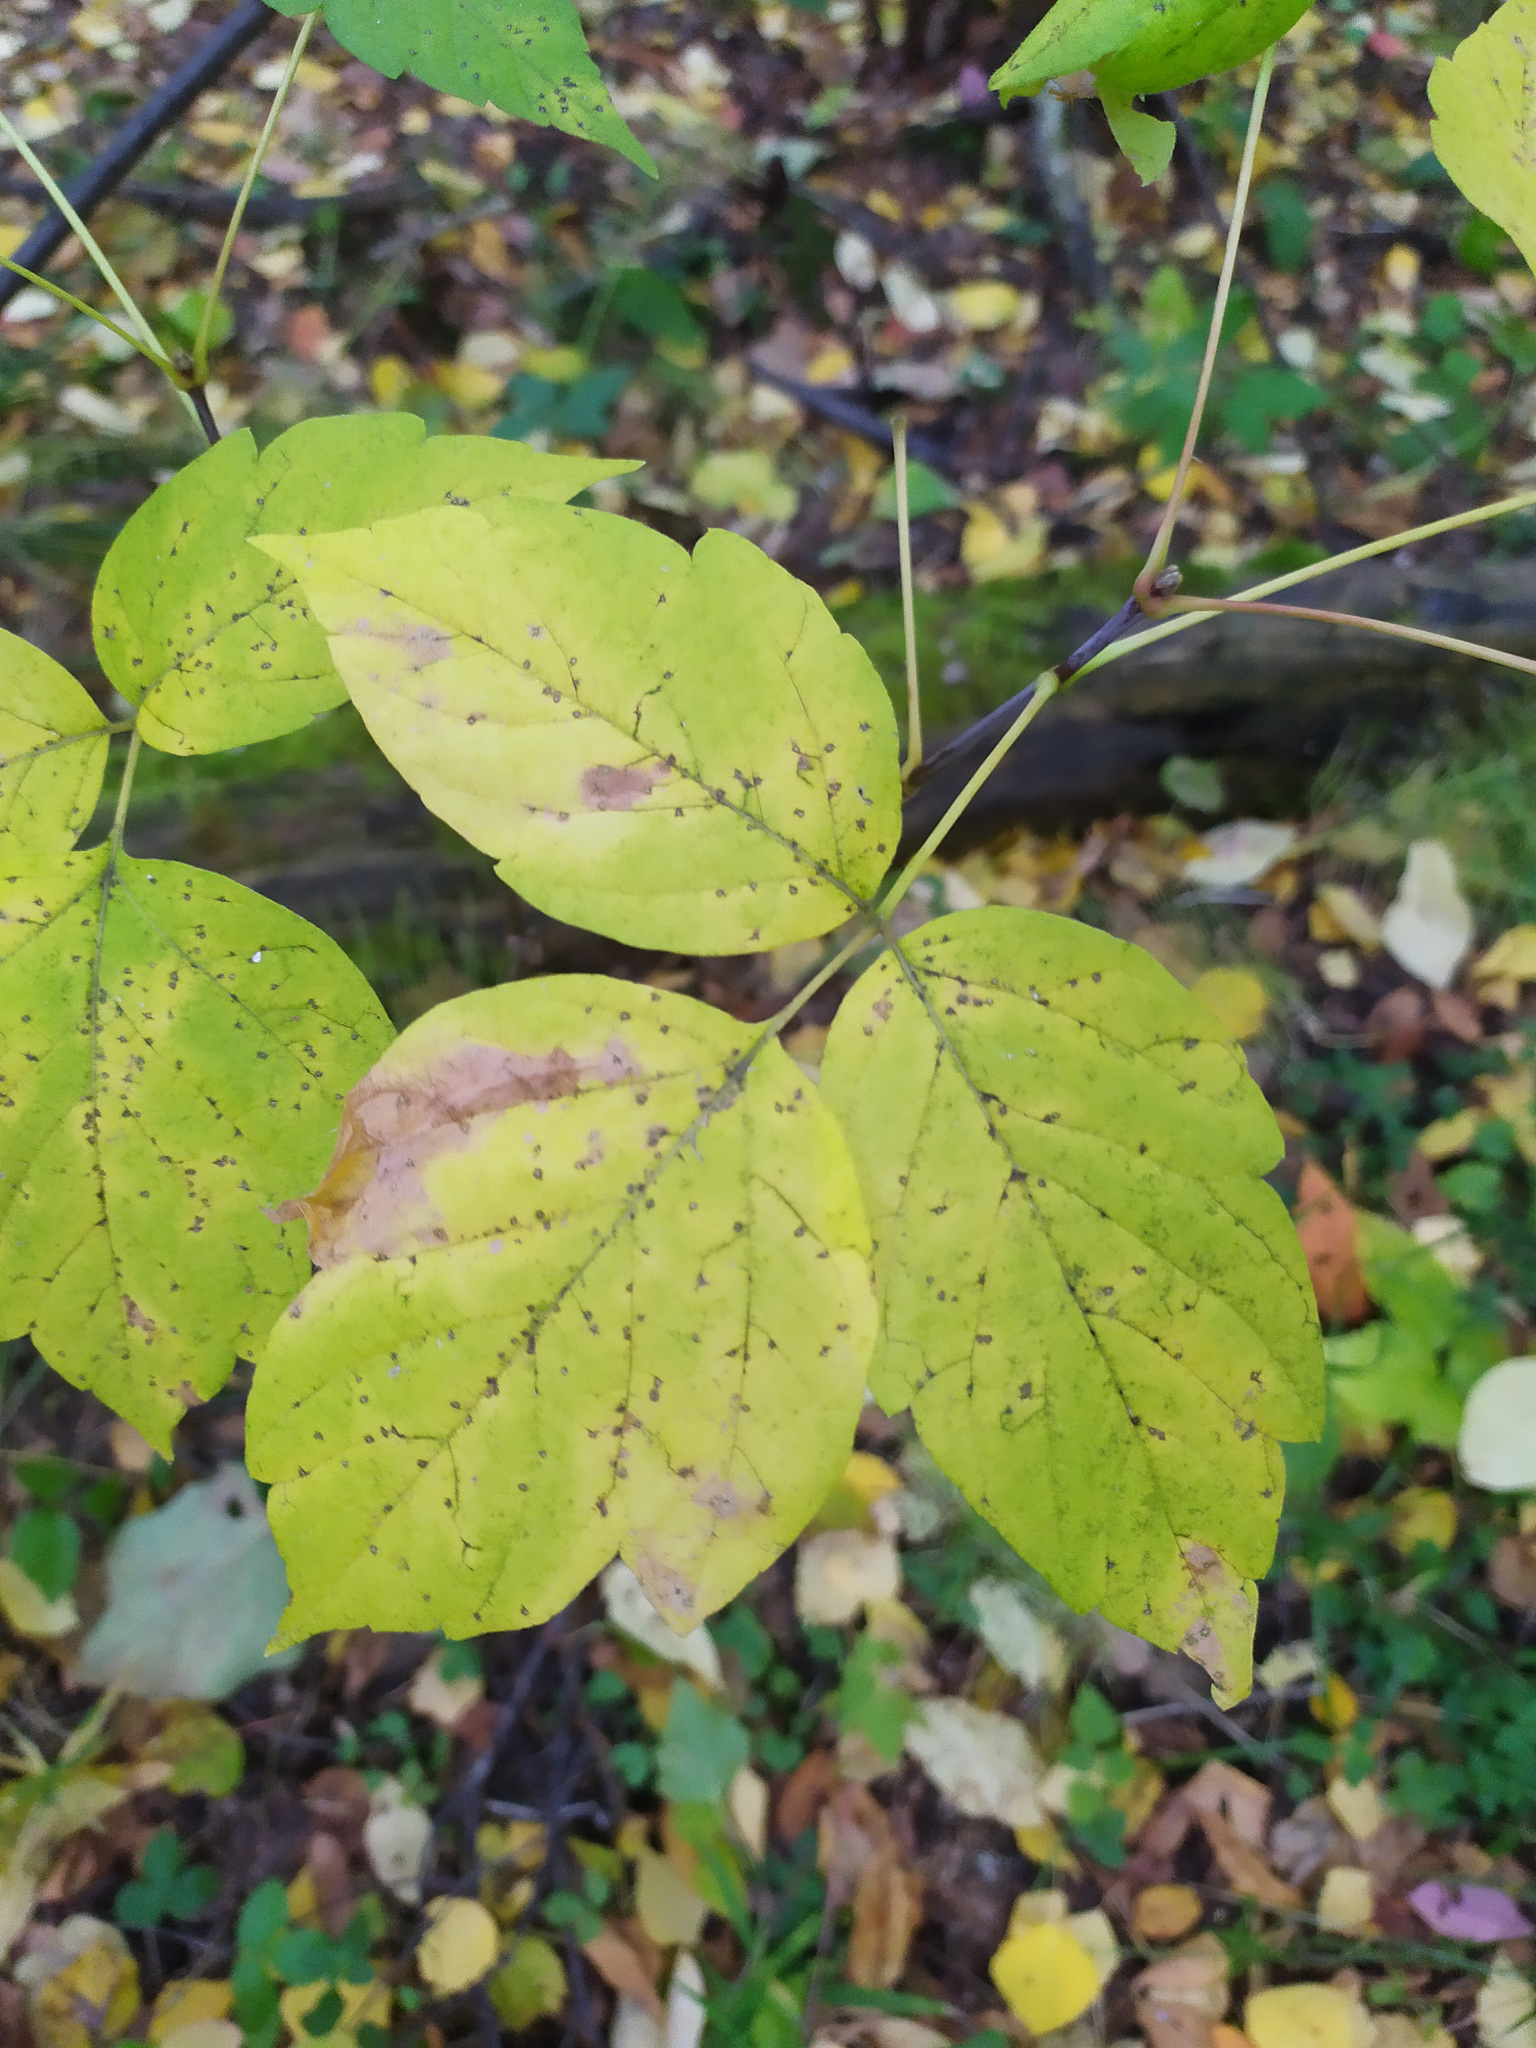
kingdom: Plantae
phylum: Tracheophyta
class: Magnoliopsida
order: Sapindales
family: Sapindaceae
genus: Acer
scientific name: Acer negundo
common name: Ashleaf maple
